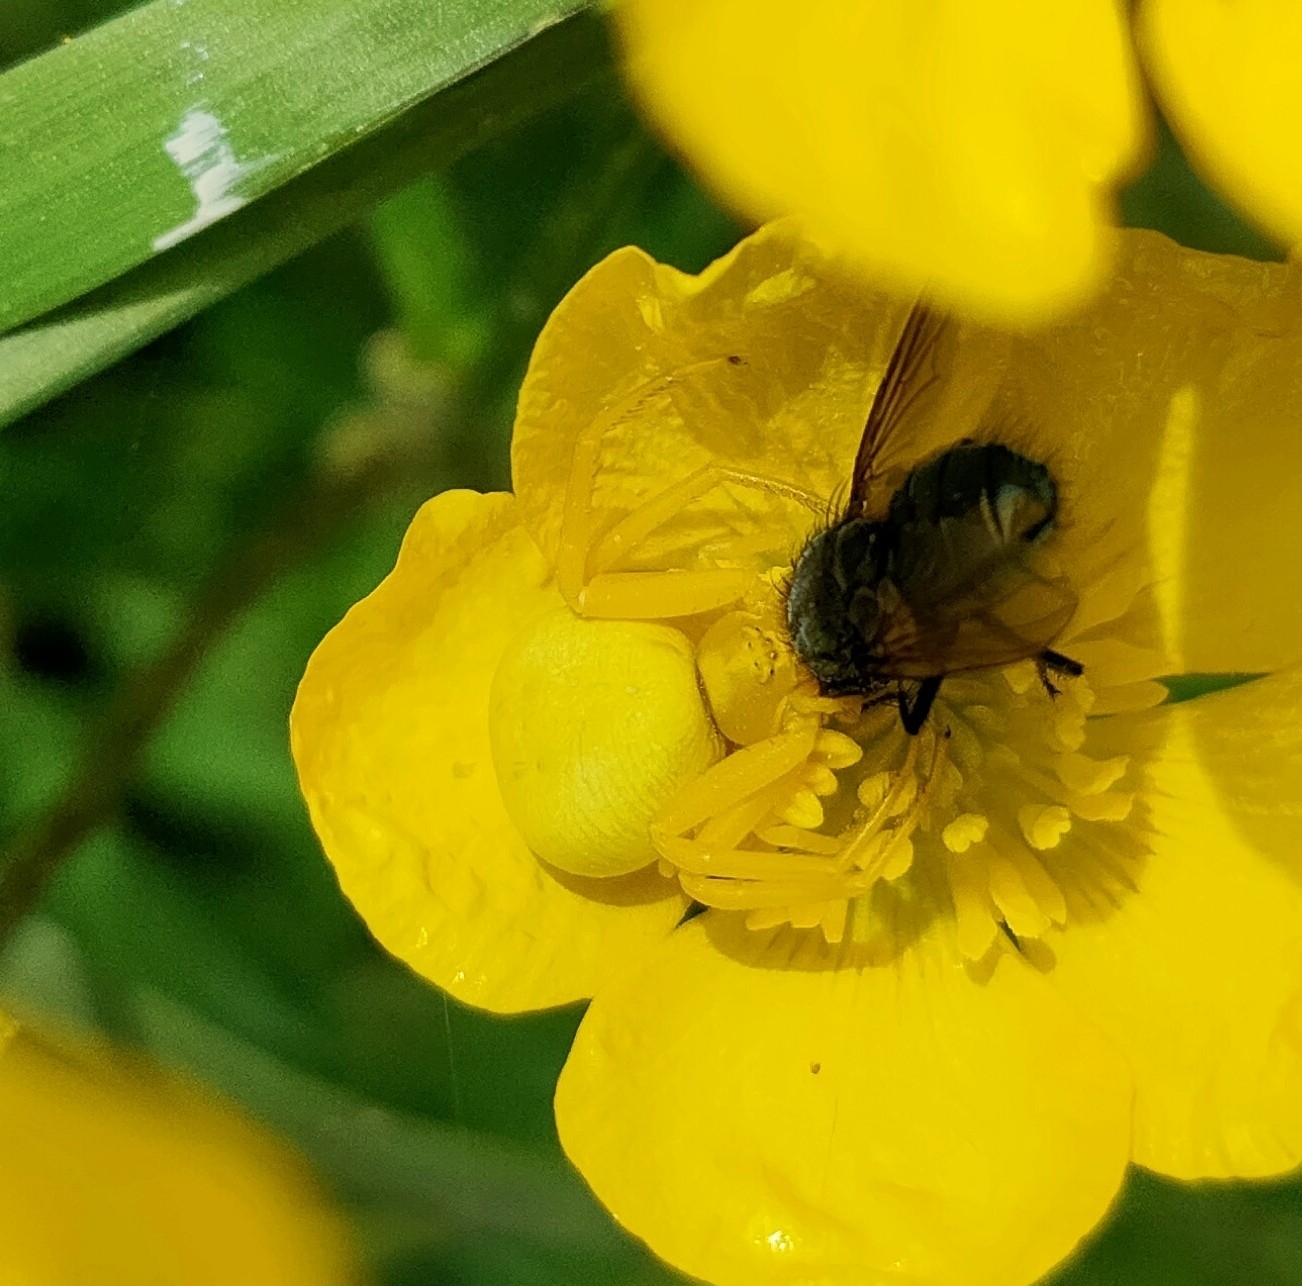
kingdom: Animalia
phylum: Arthropoda
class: Arachnida
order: Araneae
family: Thomisidae
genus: Misumena
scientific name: Misumena vatia
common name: Goldenrod crab spider
